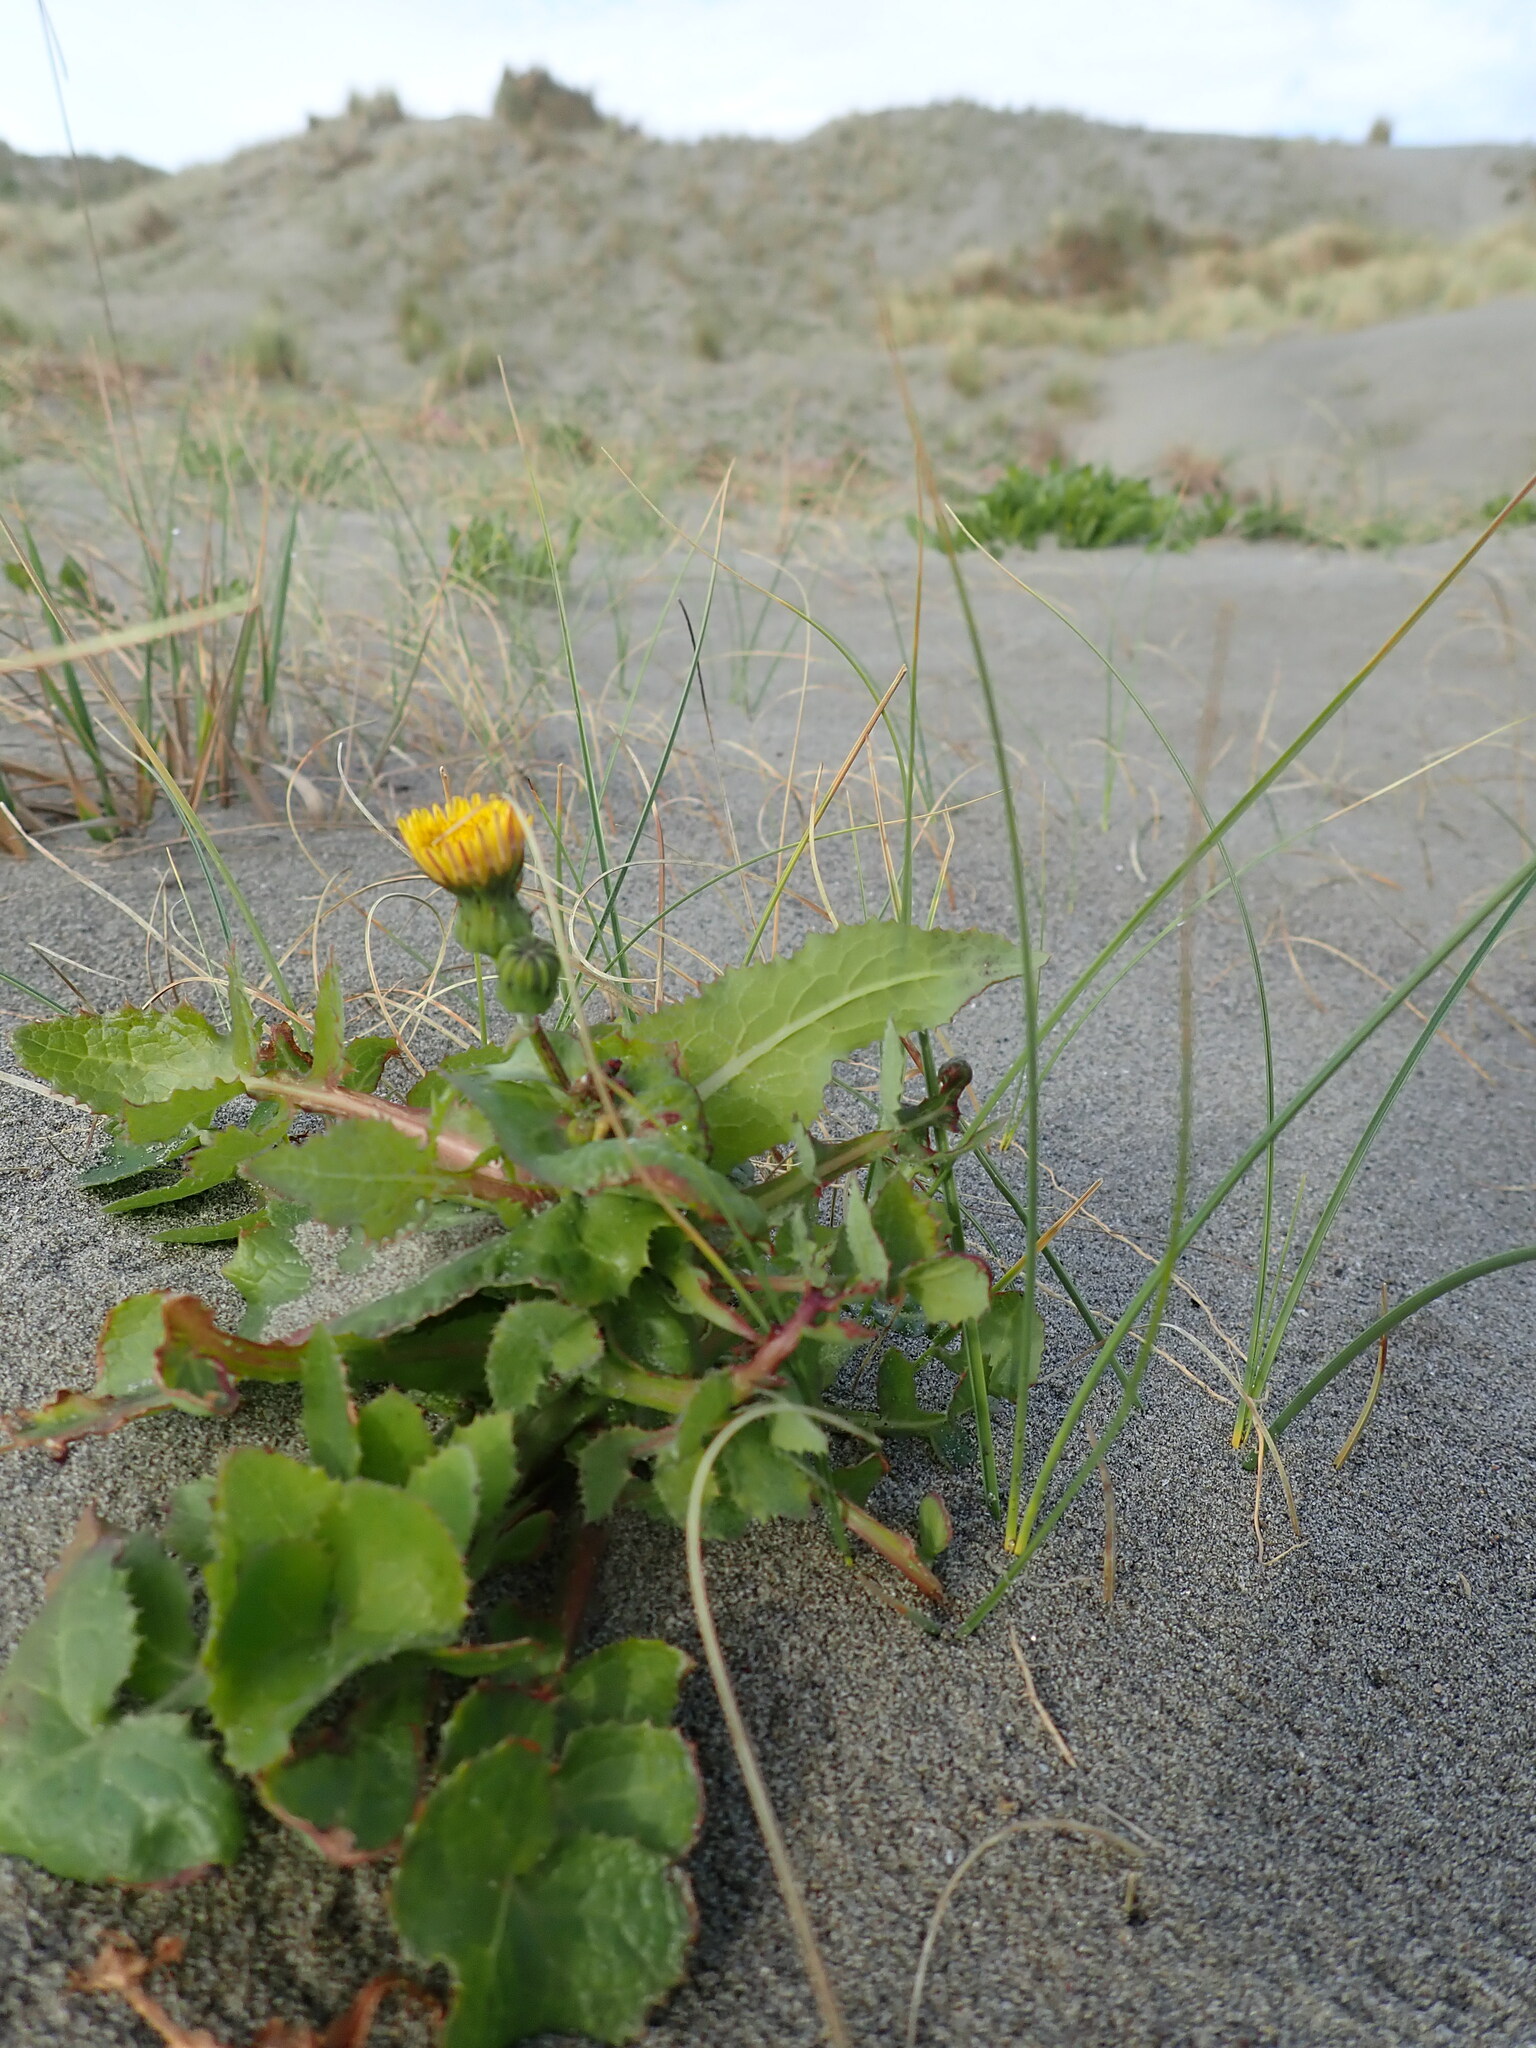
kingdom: Plantae
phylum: Tracheophyta
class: Magnoliopsida
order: Asterales
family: Asteraceae
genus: Sonchus
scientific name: Sonchus oleraceus
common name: Common sowthistle
